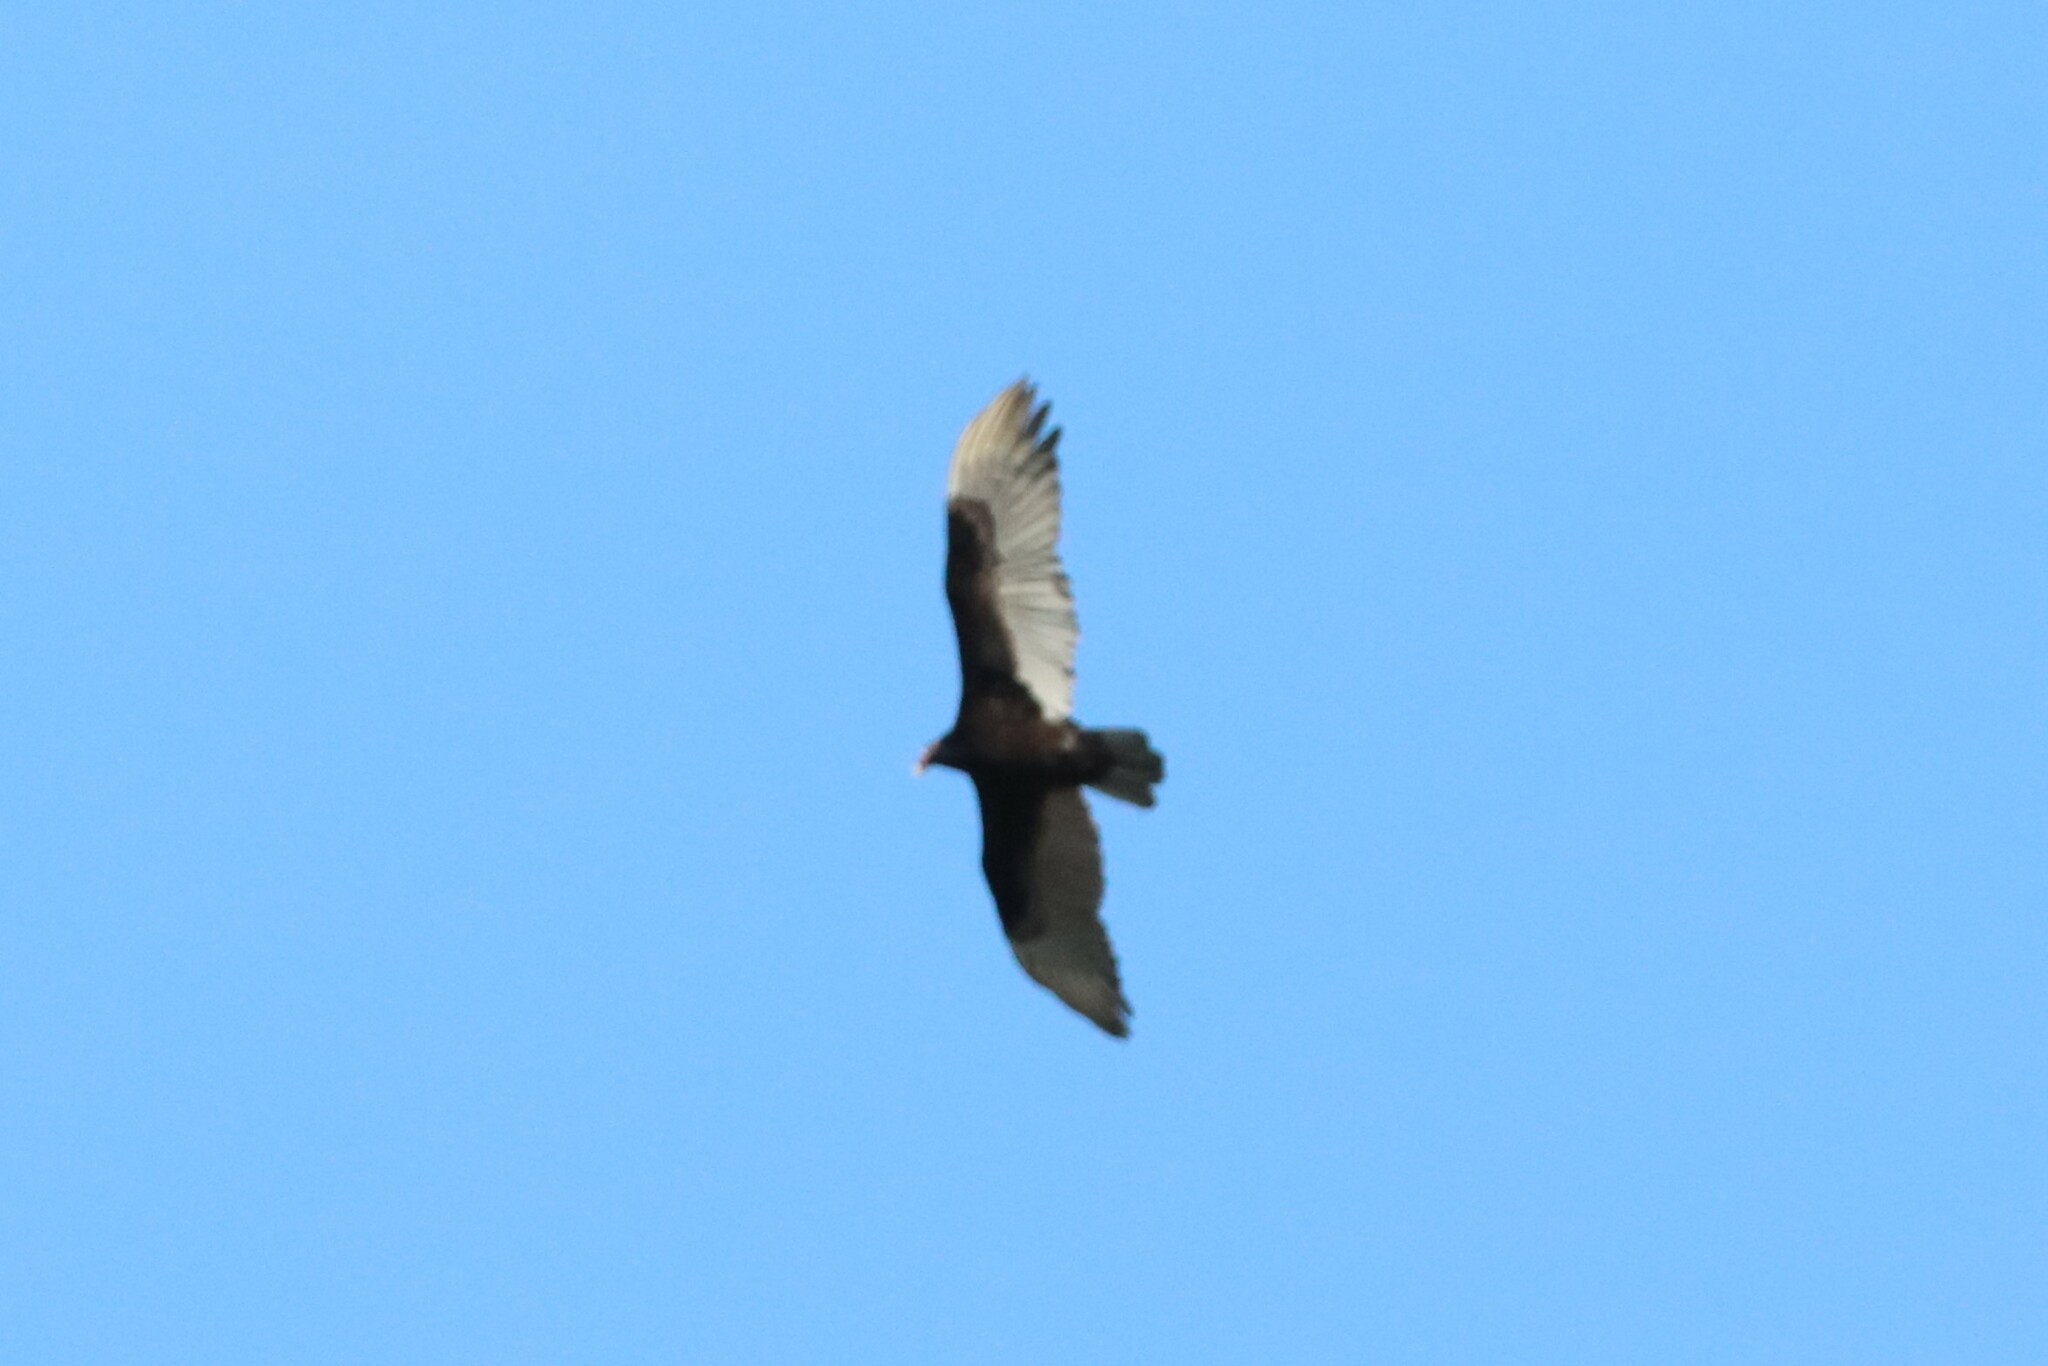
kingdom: Animalia
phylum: Chordata
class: Aves
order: Accipitriformes
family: Cathartidae
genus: Cathartes
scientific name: Cathartes aura
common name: Turkey vulture
